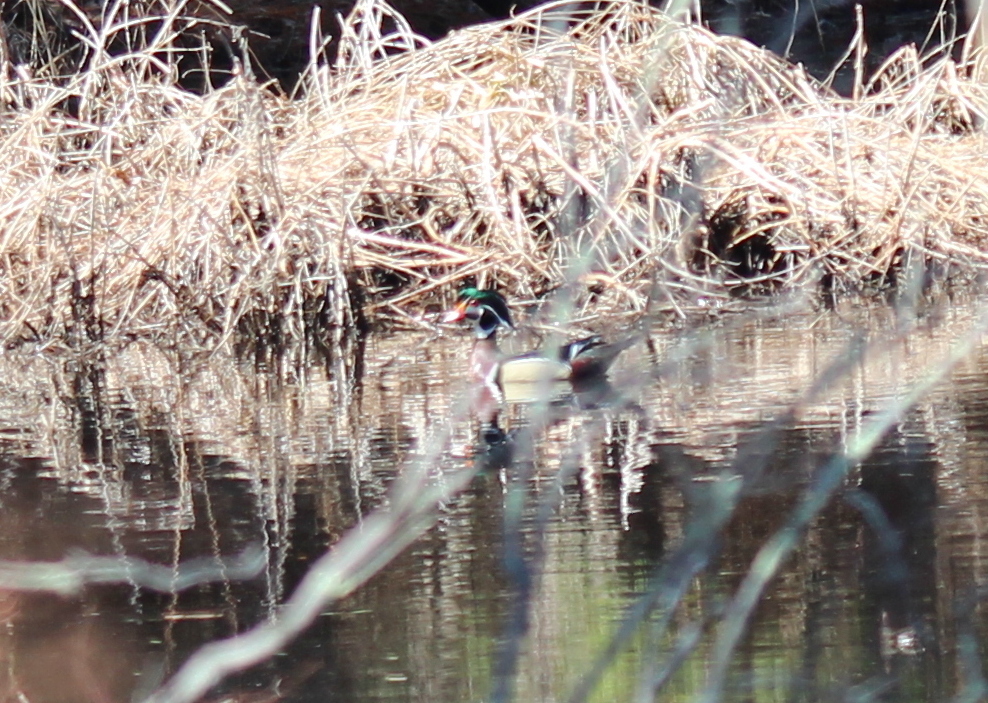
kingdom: Animalia
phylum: Chordata
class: Aves
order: Anseriformes
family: Anatidae
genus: Aix
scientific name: Aix sponsa
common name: Wood duck
